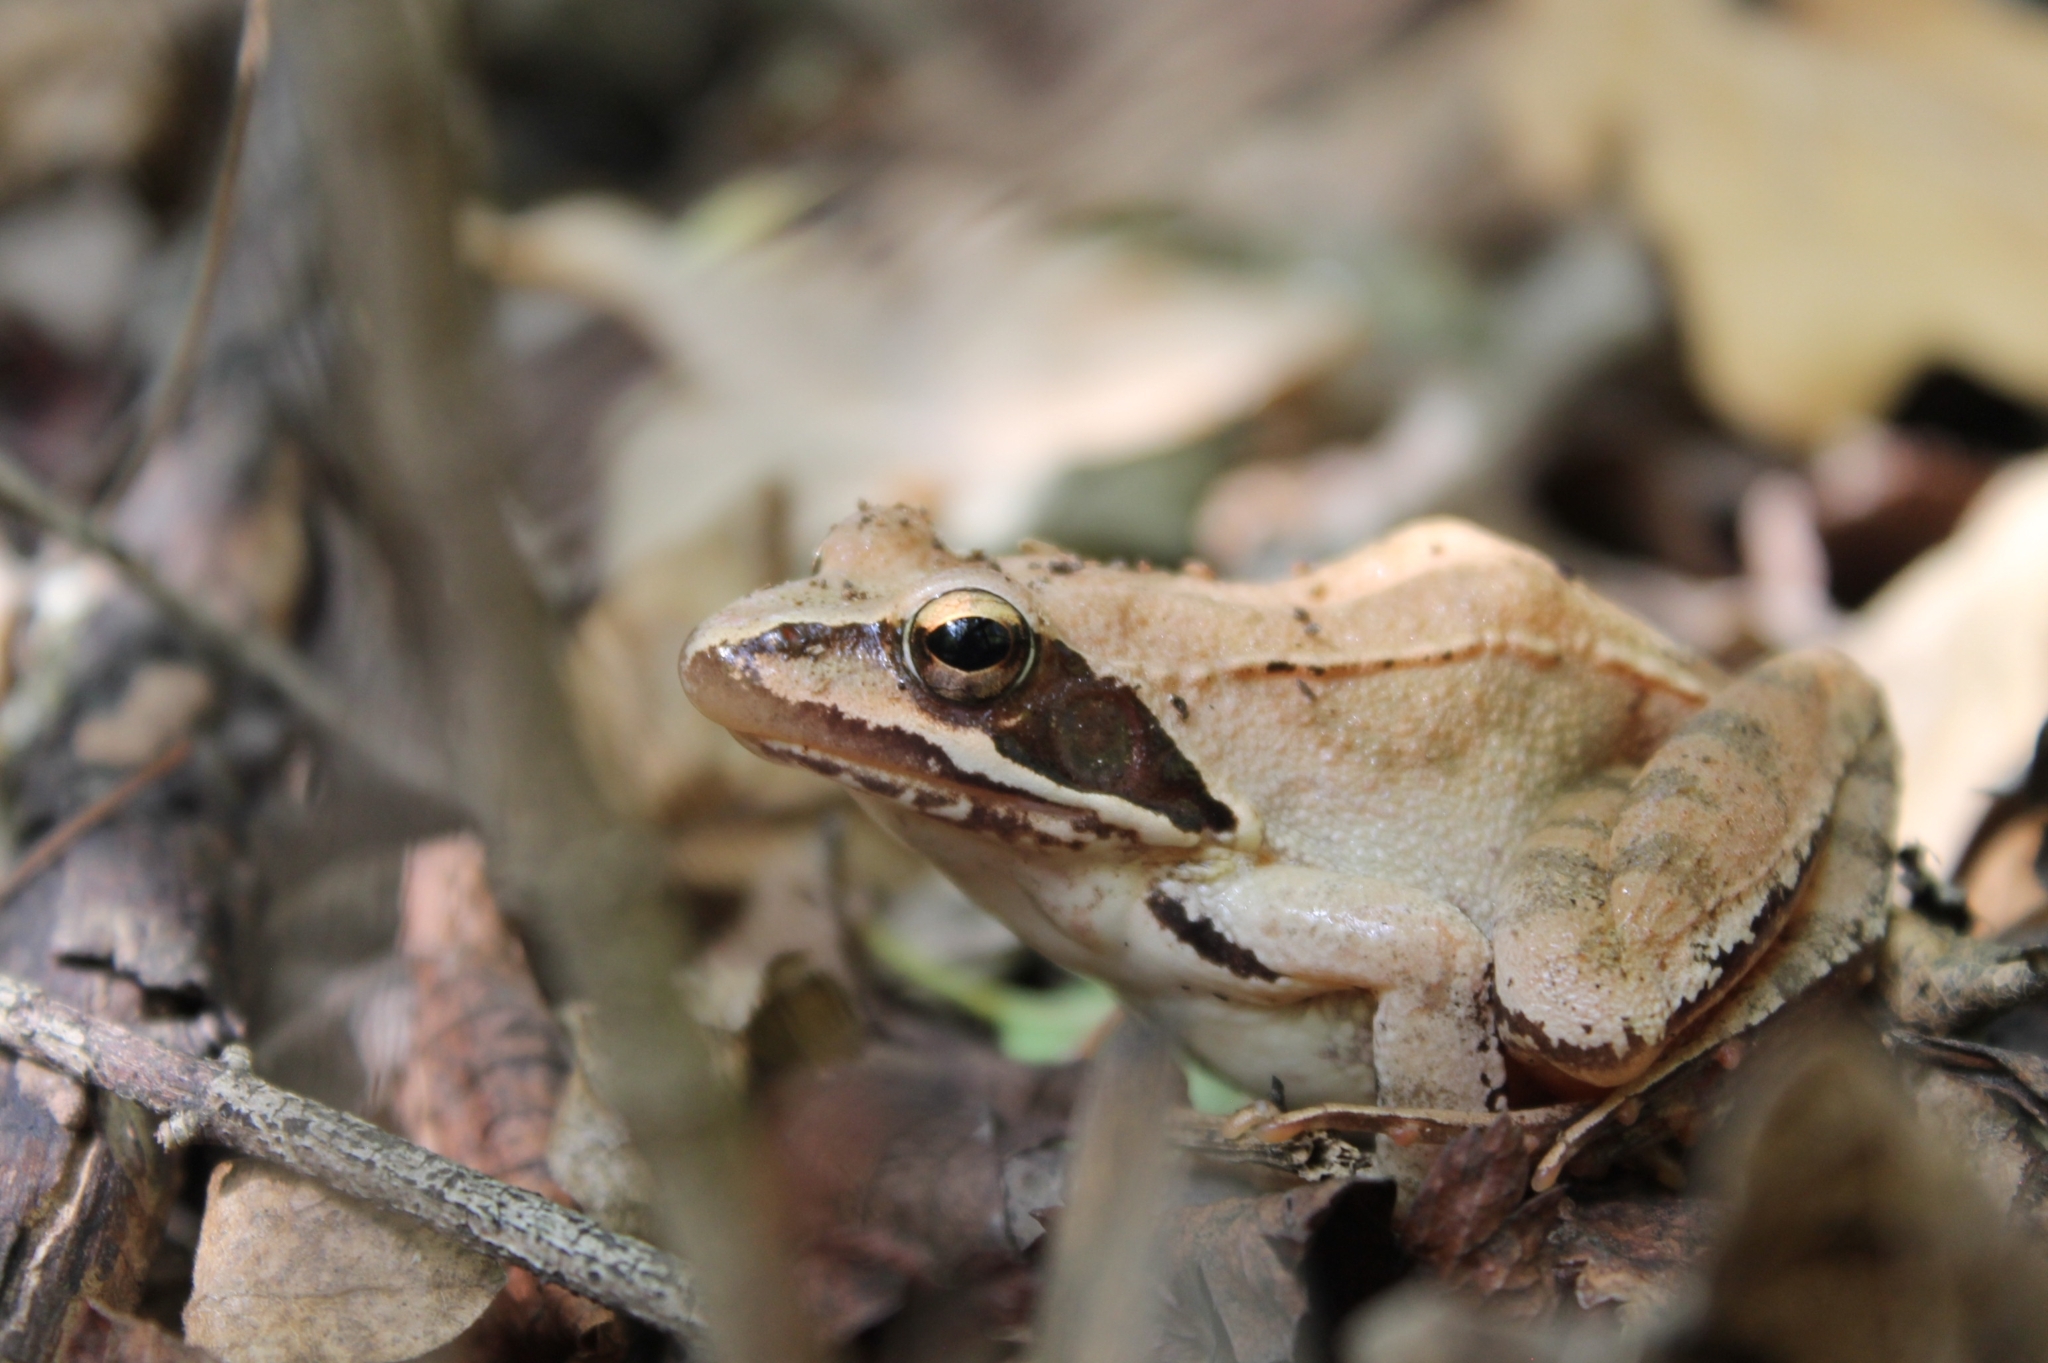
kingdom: Animalia
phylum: Chordata
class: Amphibia
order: Anura
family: Ranidae
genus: Rana
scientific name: Rana dalmatina
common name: Agile frog
